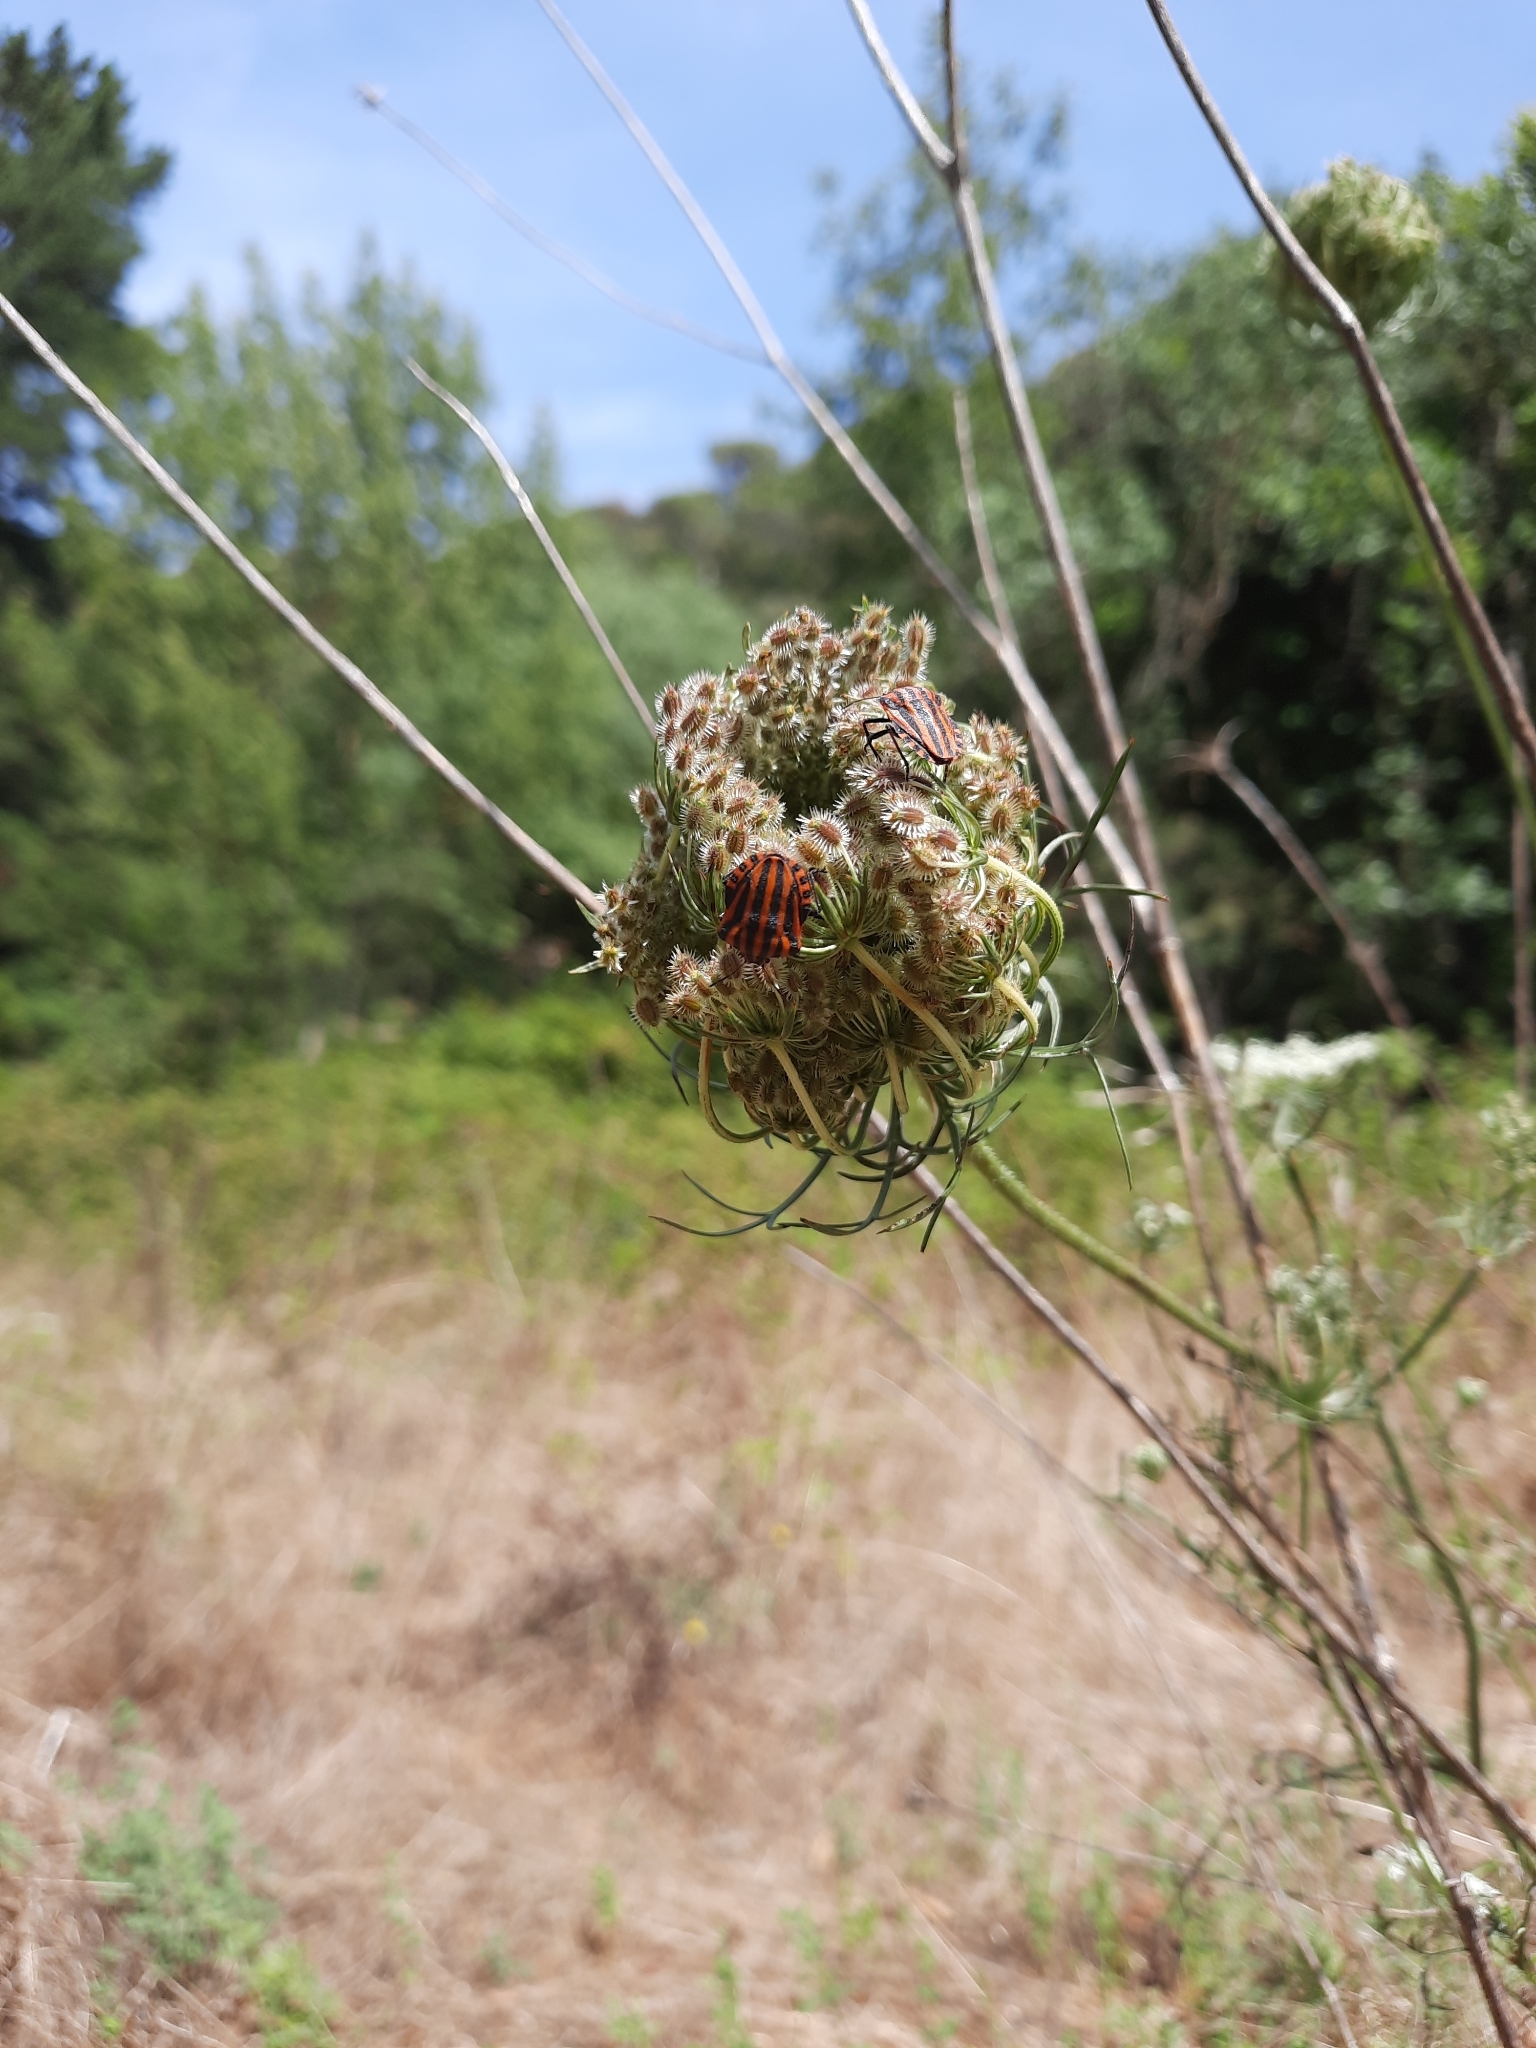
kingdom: Plantae
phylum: Tracheophyta
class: Magnoliopsida
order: Apiales
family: Apiaceae
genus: Daucus
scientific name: Daucus carota
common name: Wild carrot
